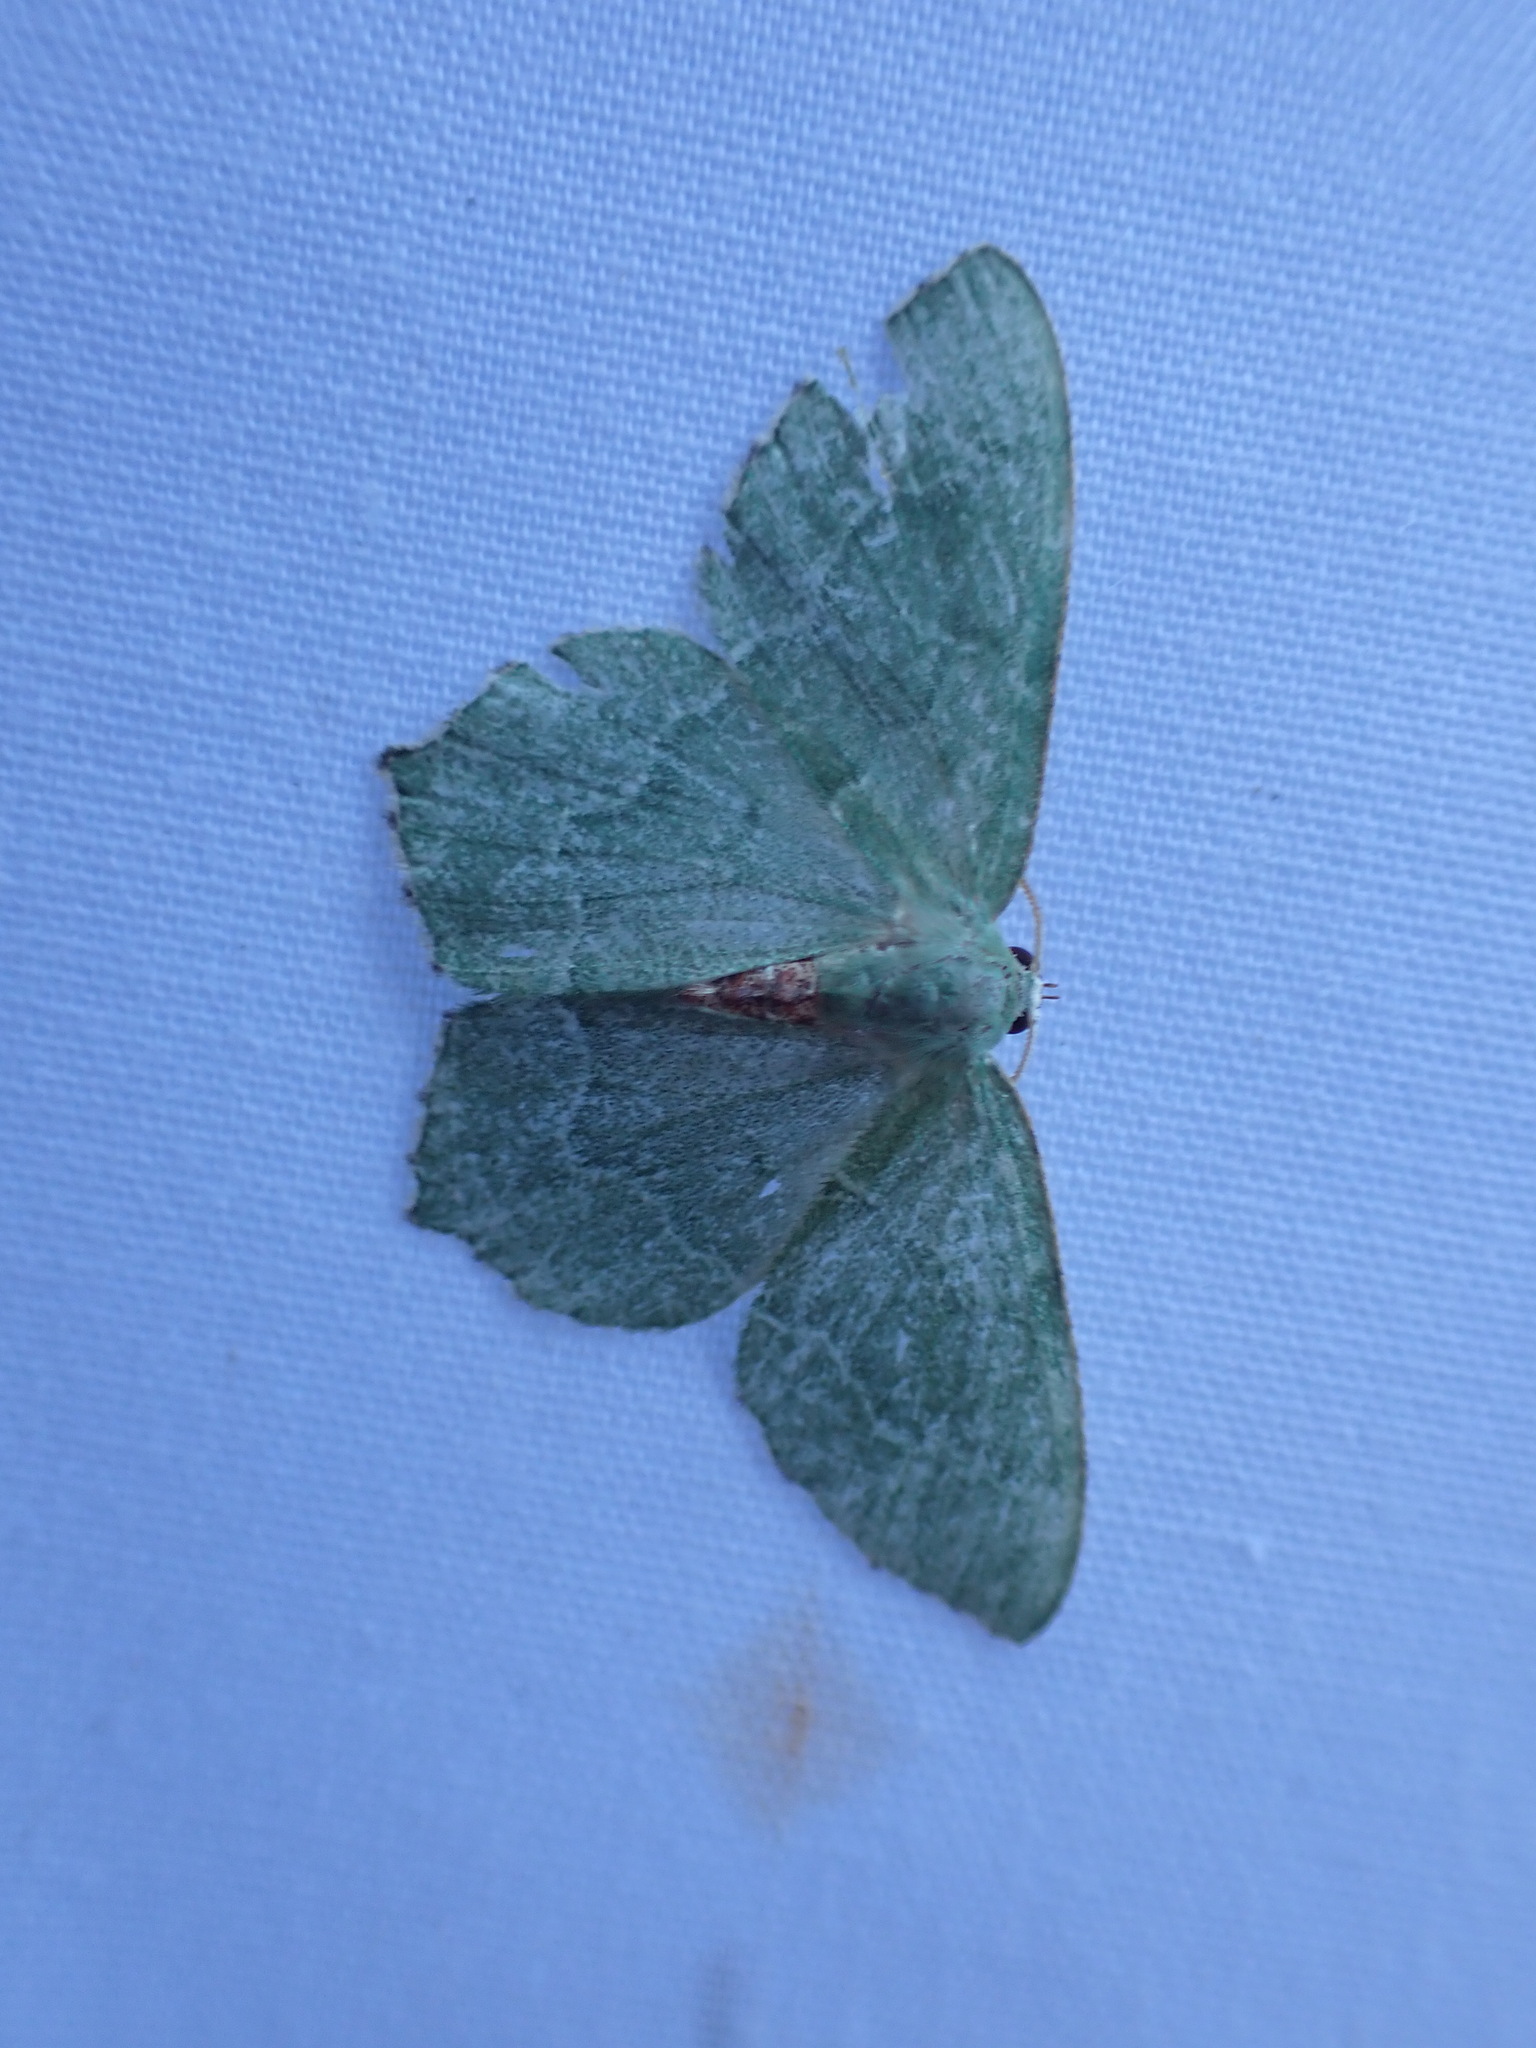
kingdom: Animalia
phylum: Arthropoda
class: Insecta
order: Lepidoptera
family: Geometridae
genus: Hemithea
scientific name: Hemithea aestivaria
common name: Common emerald
